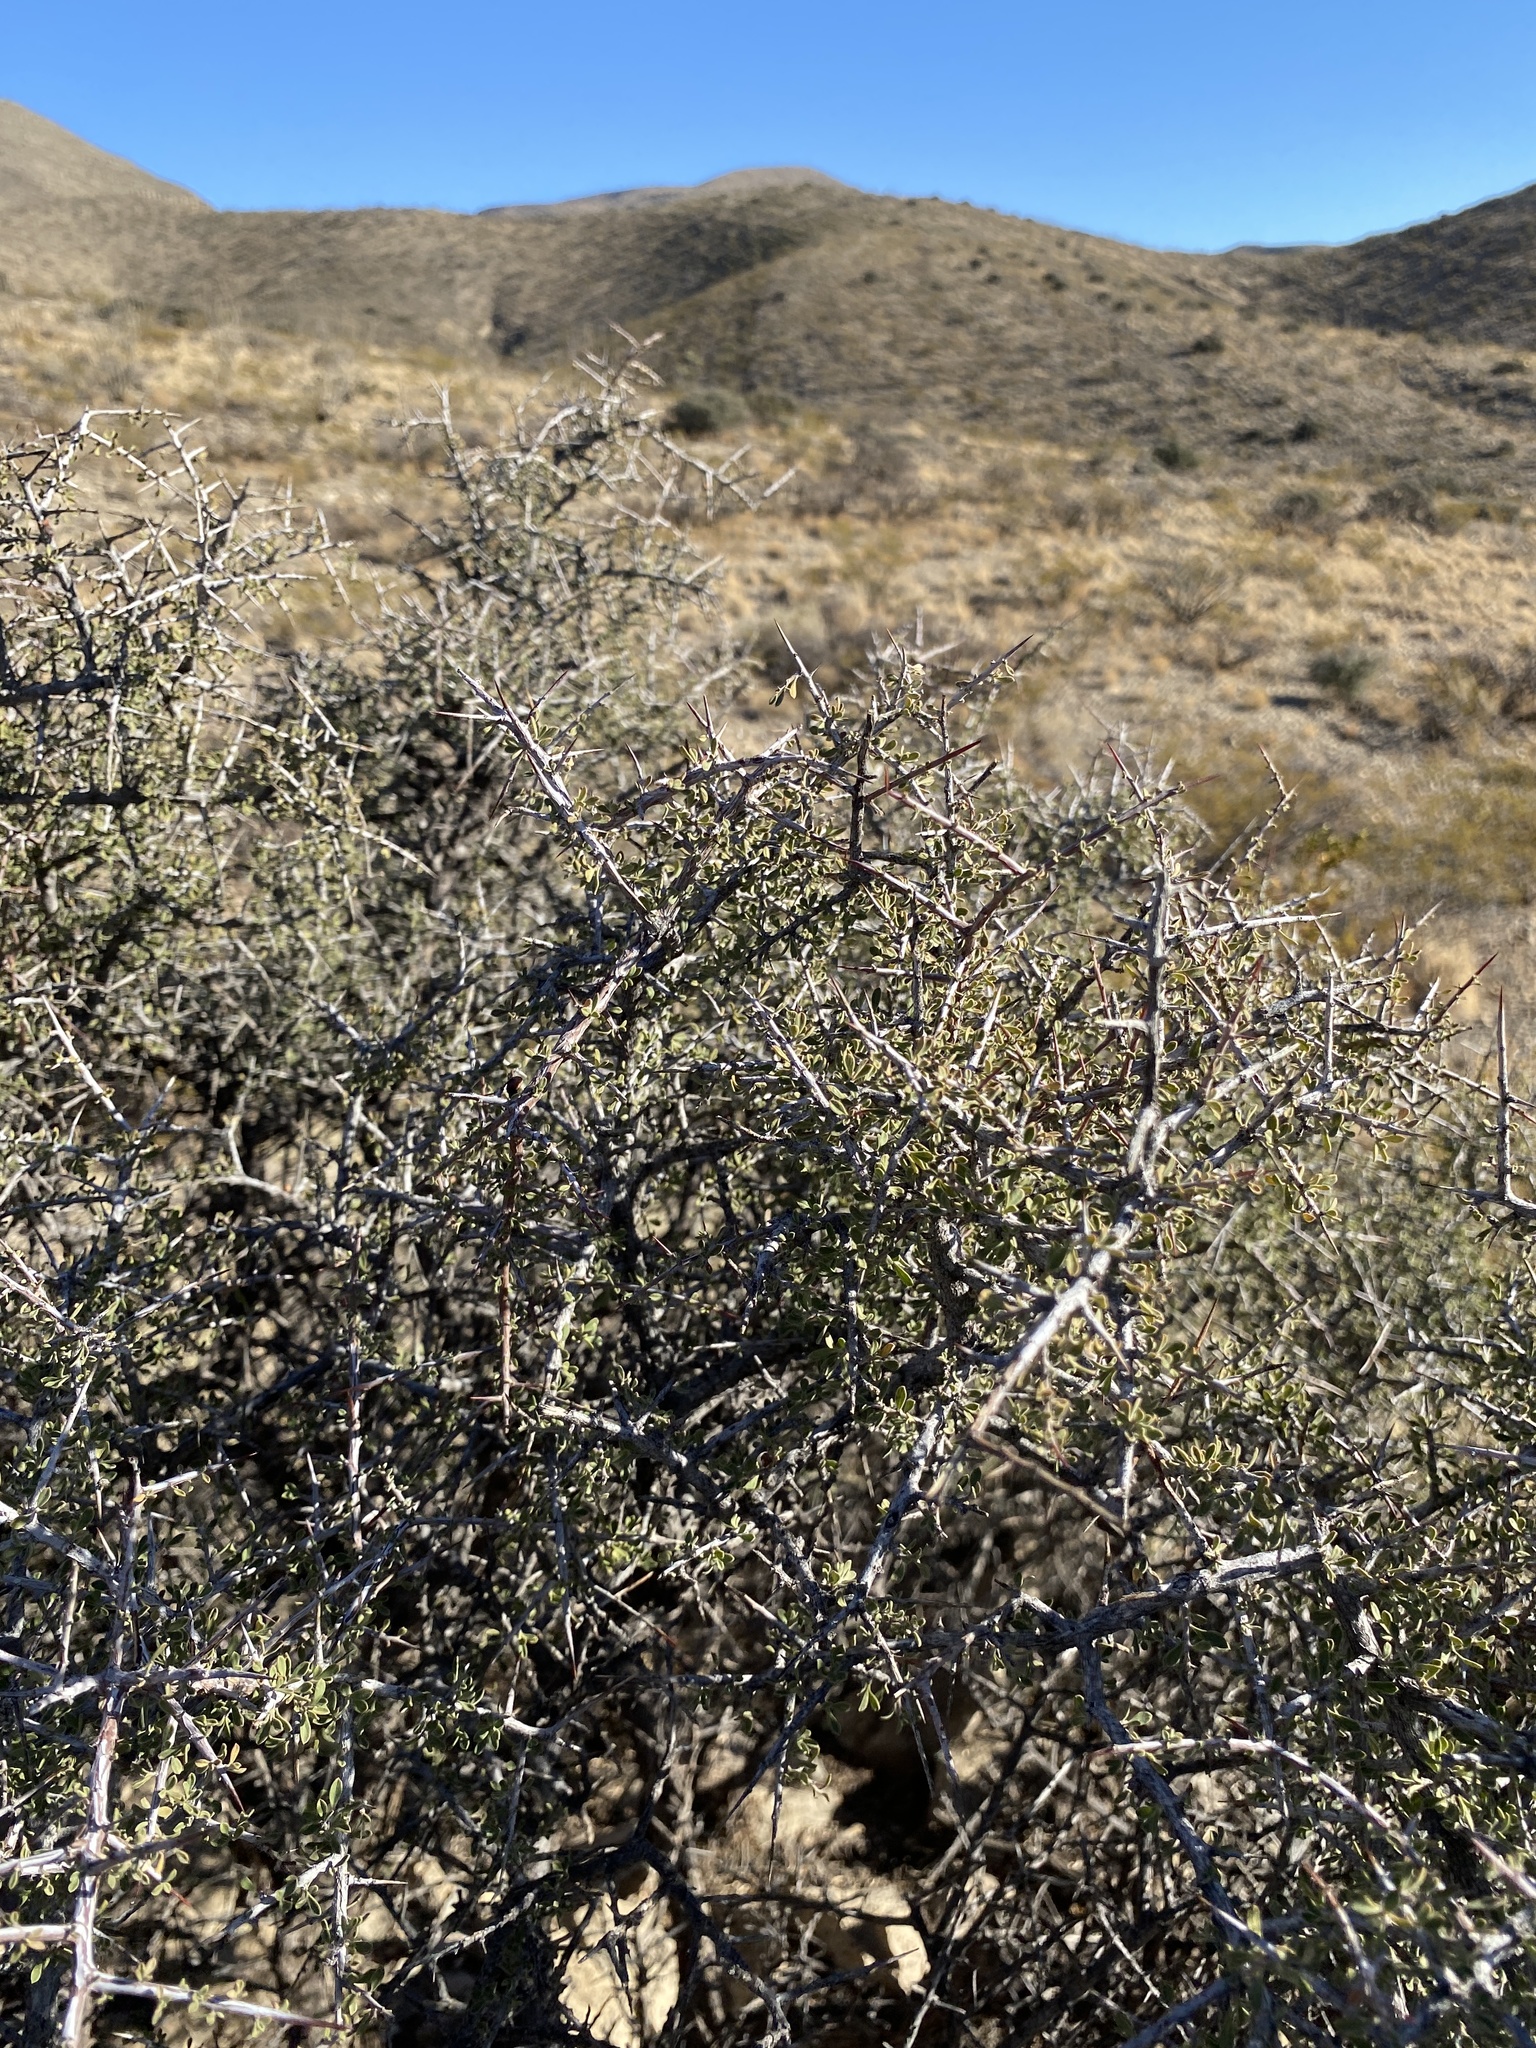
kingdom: Plantae
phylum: Tracheophyta
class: Magnoliopsida
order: Rosales
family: Rhamnaceae
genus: Condalia
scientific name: Condalia warnockii
